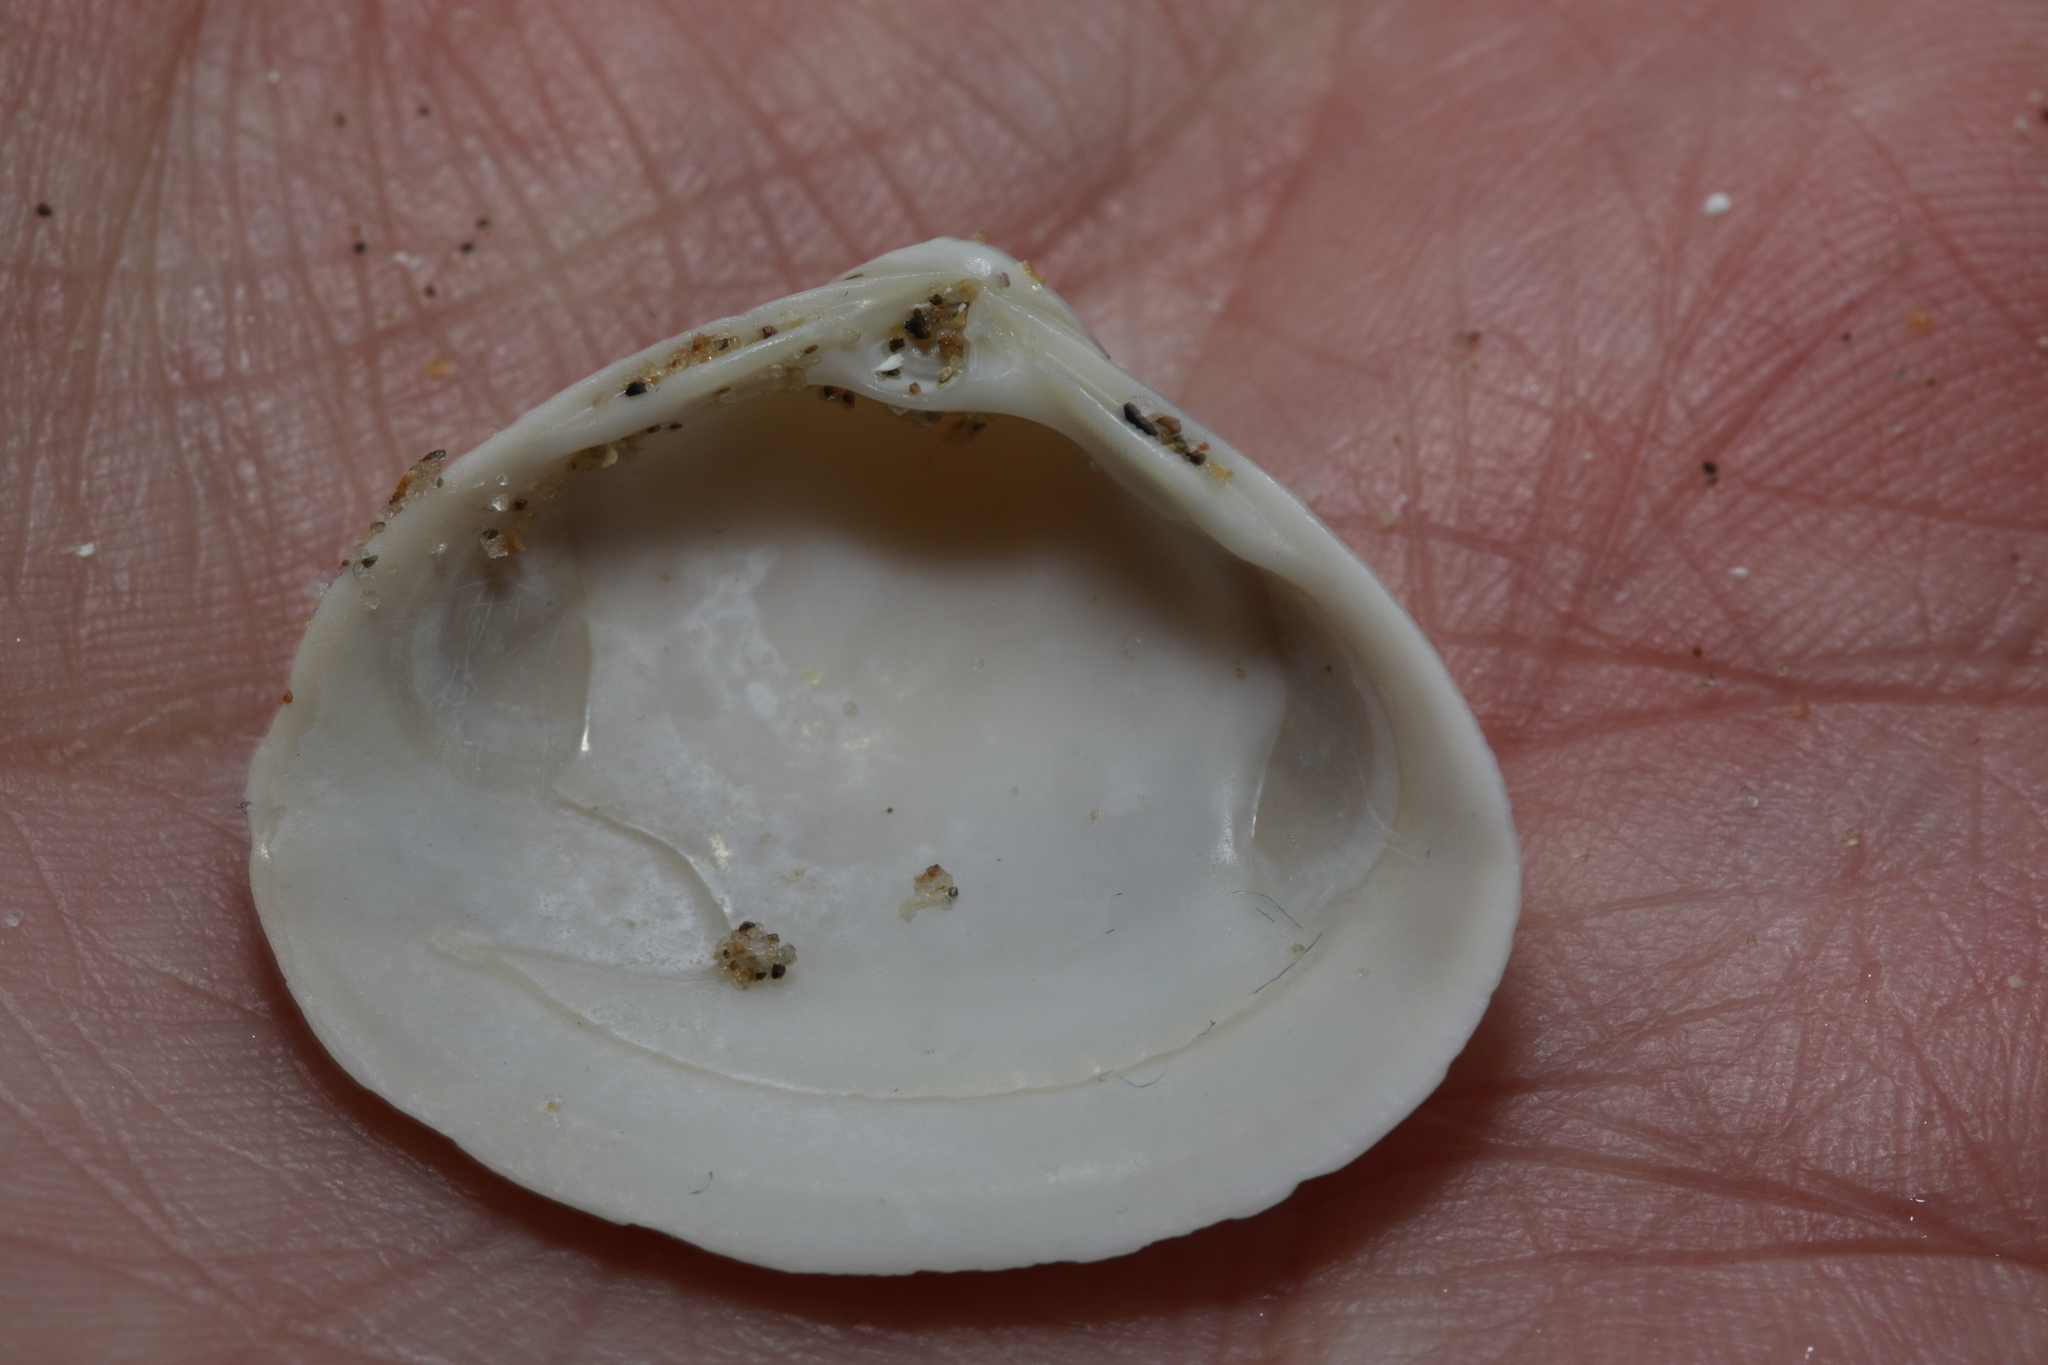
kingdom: Animalia
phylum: Mollusca
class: Bivalvia
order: Venerida
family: Mactridae
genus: Spisula
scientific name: Spisula solida
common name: Thick trough shell
